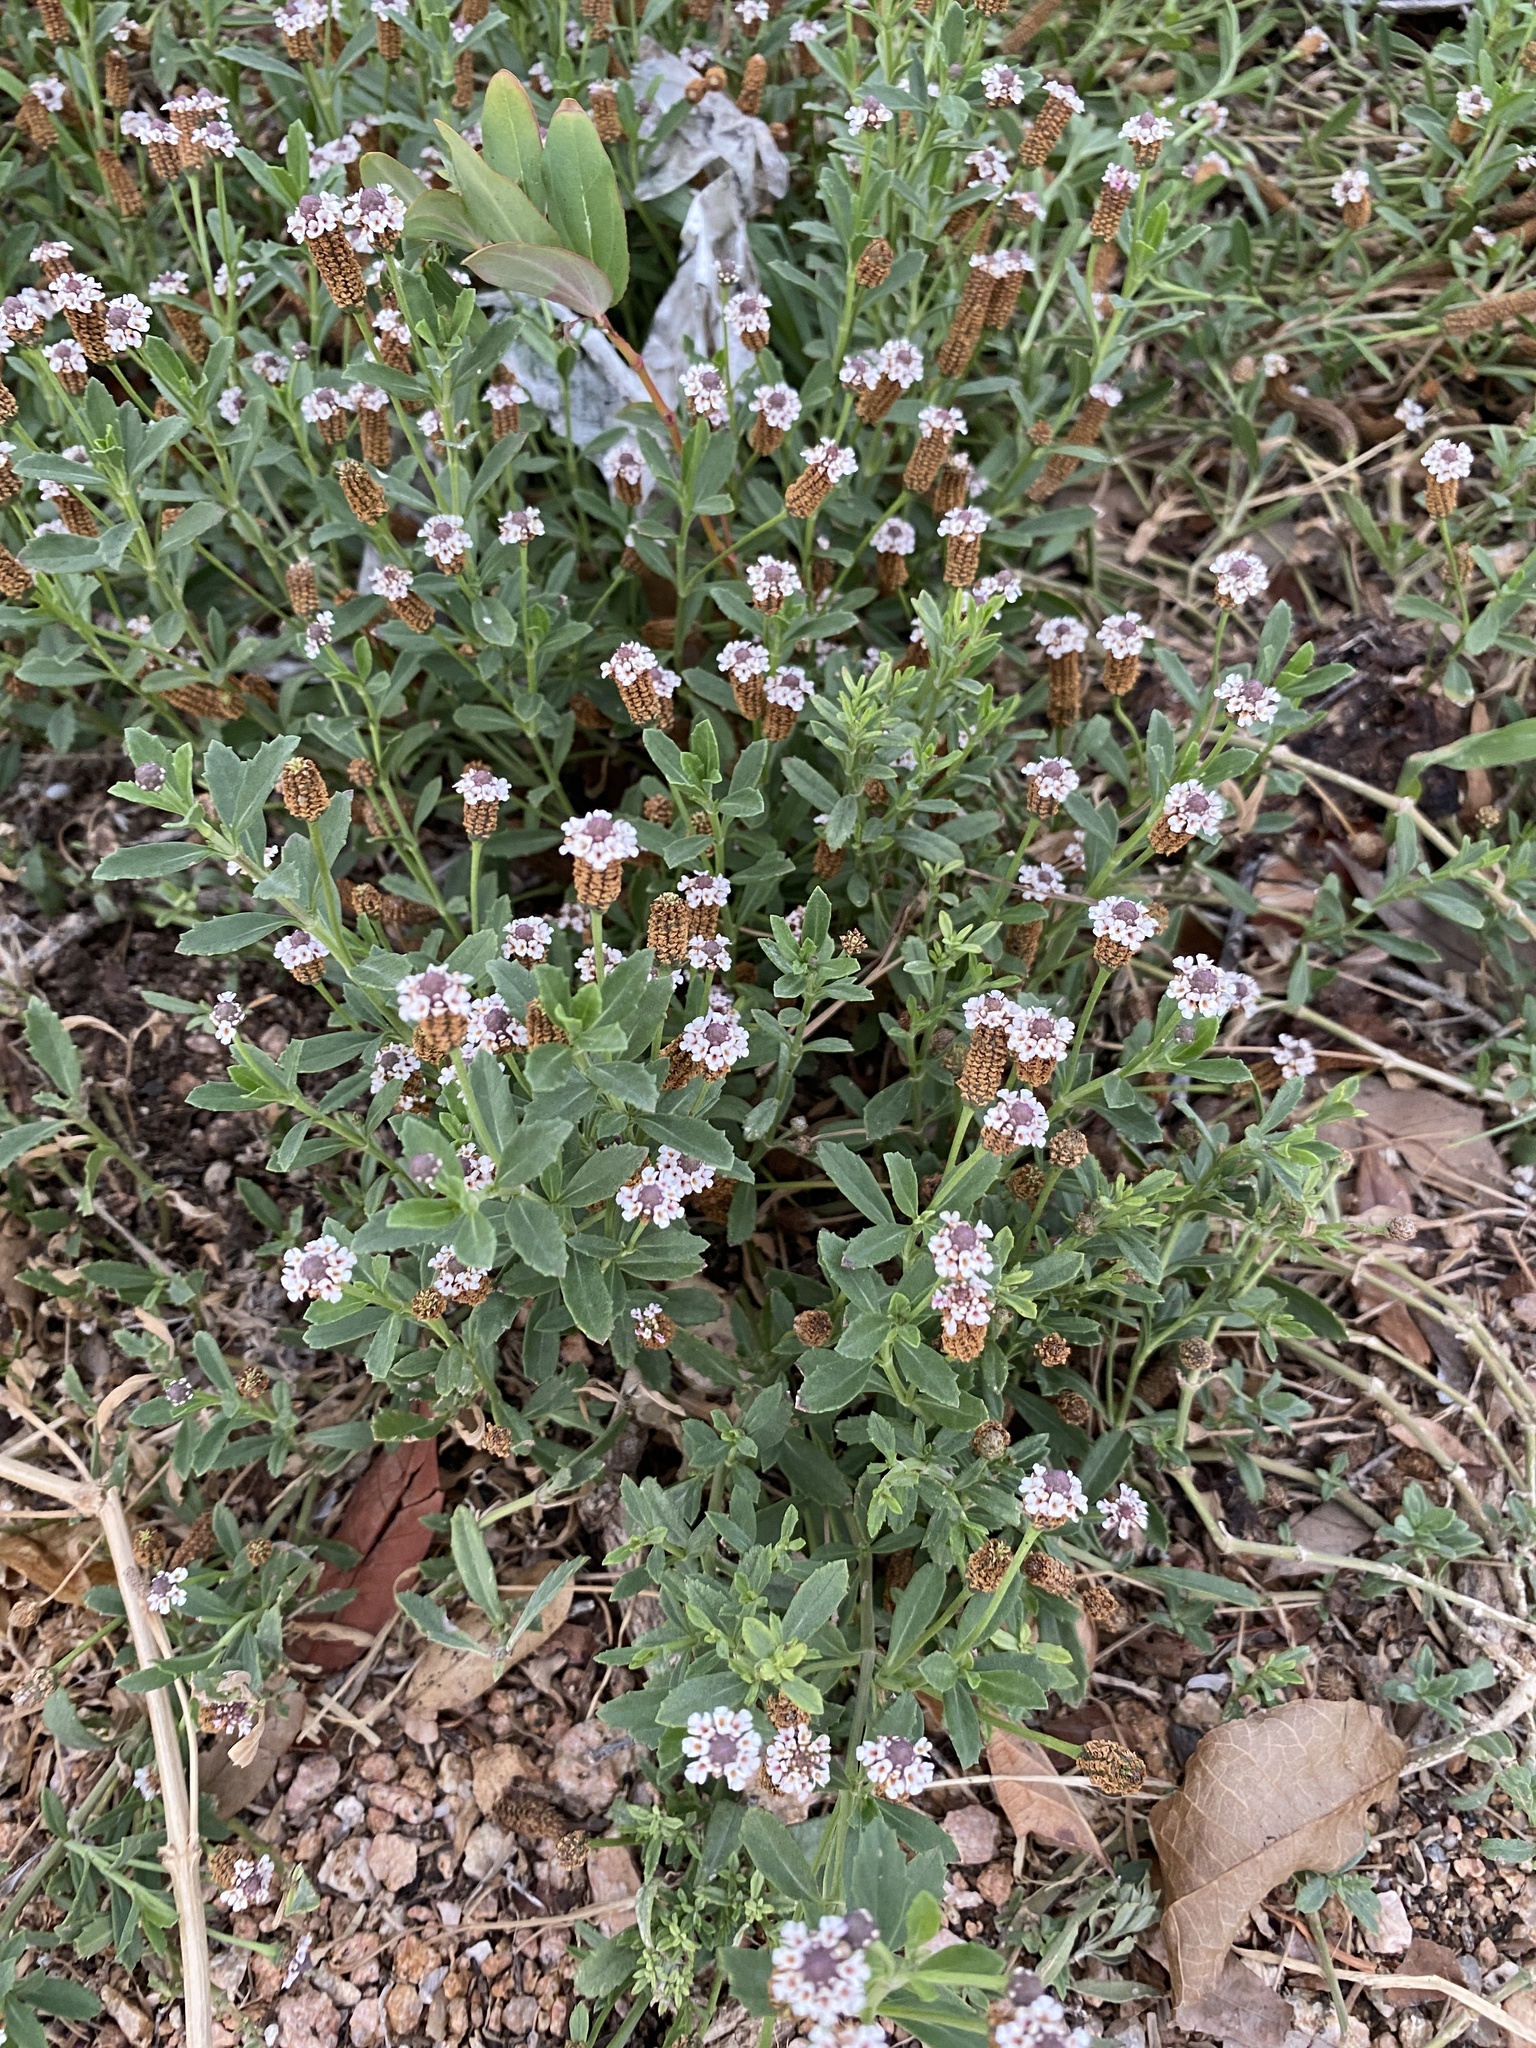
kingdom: Plantae
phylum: Tracheophyta
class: Magnoliopsida
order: Lamiales
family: Verbenaceae
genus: Phyla
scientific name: Phyla nodiflora
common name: Frogfruit
